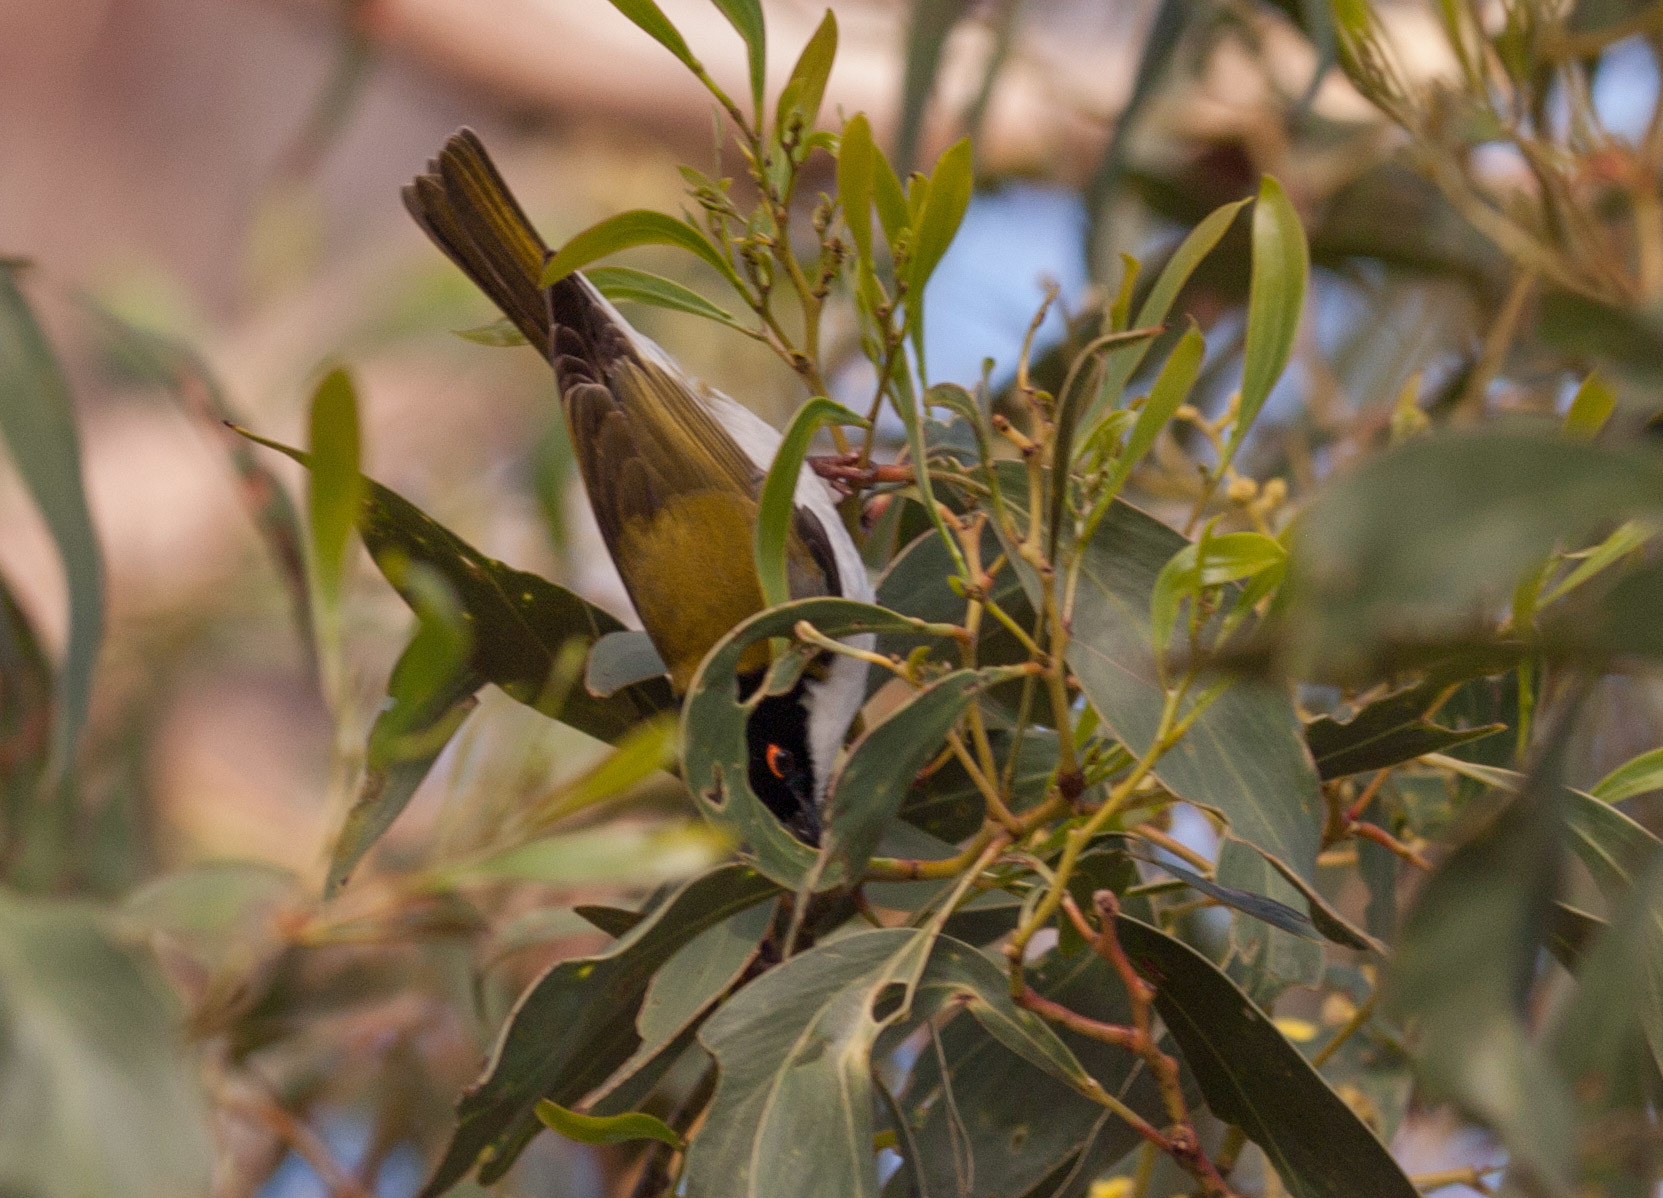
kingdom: Animalia
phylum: Chordata
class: Aves
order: Passeriformes
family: Meliphagidae
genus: Melithreptus
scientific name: Melithreptus lunatus
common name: White-naped honeyeater
